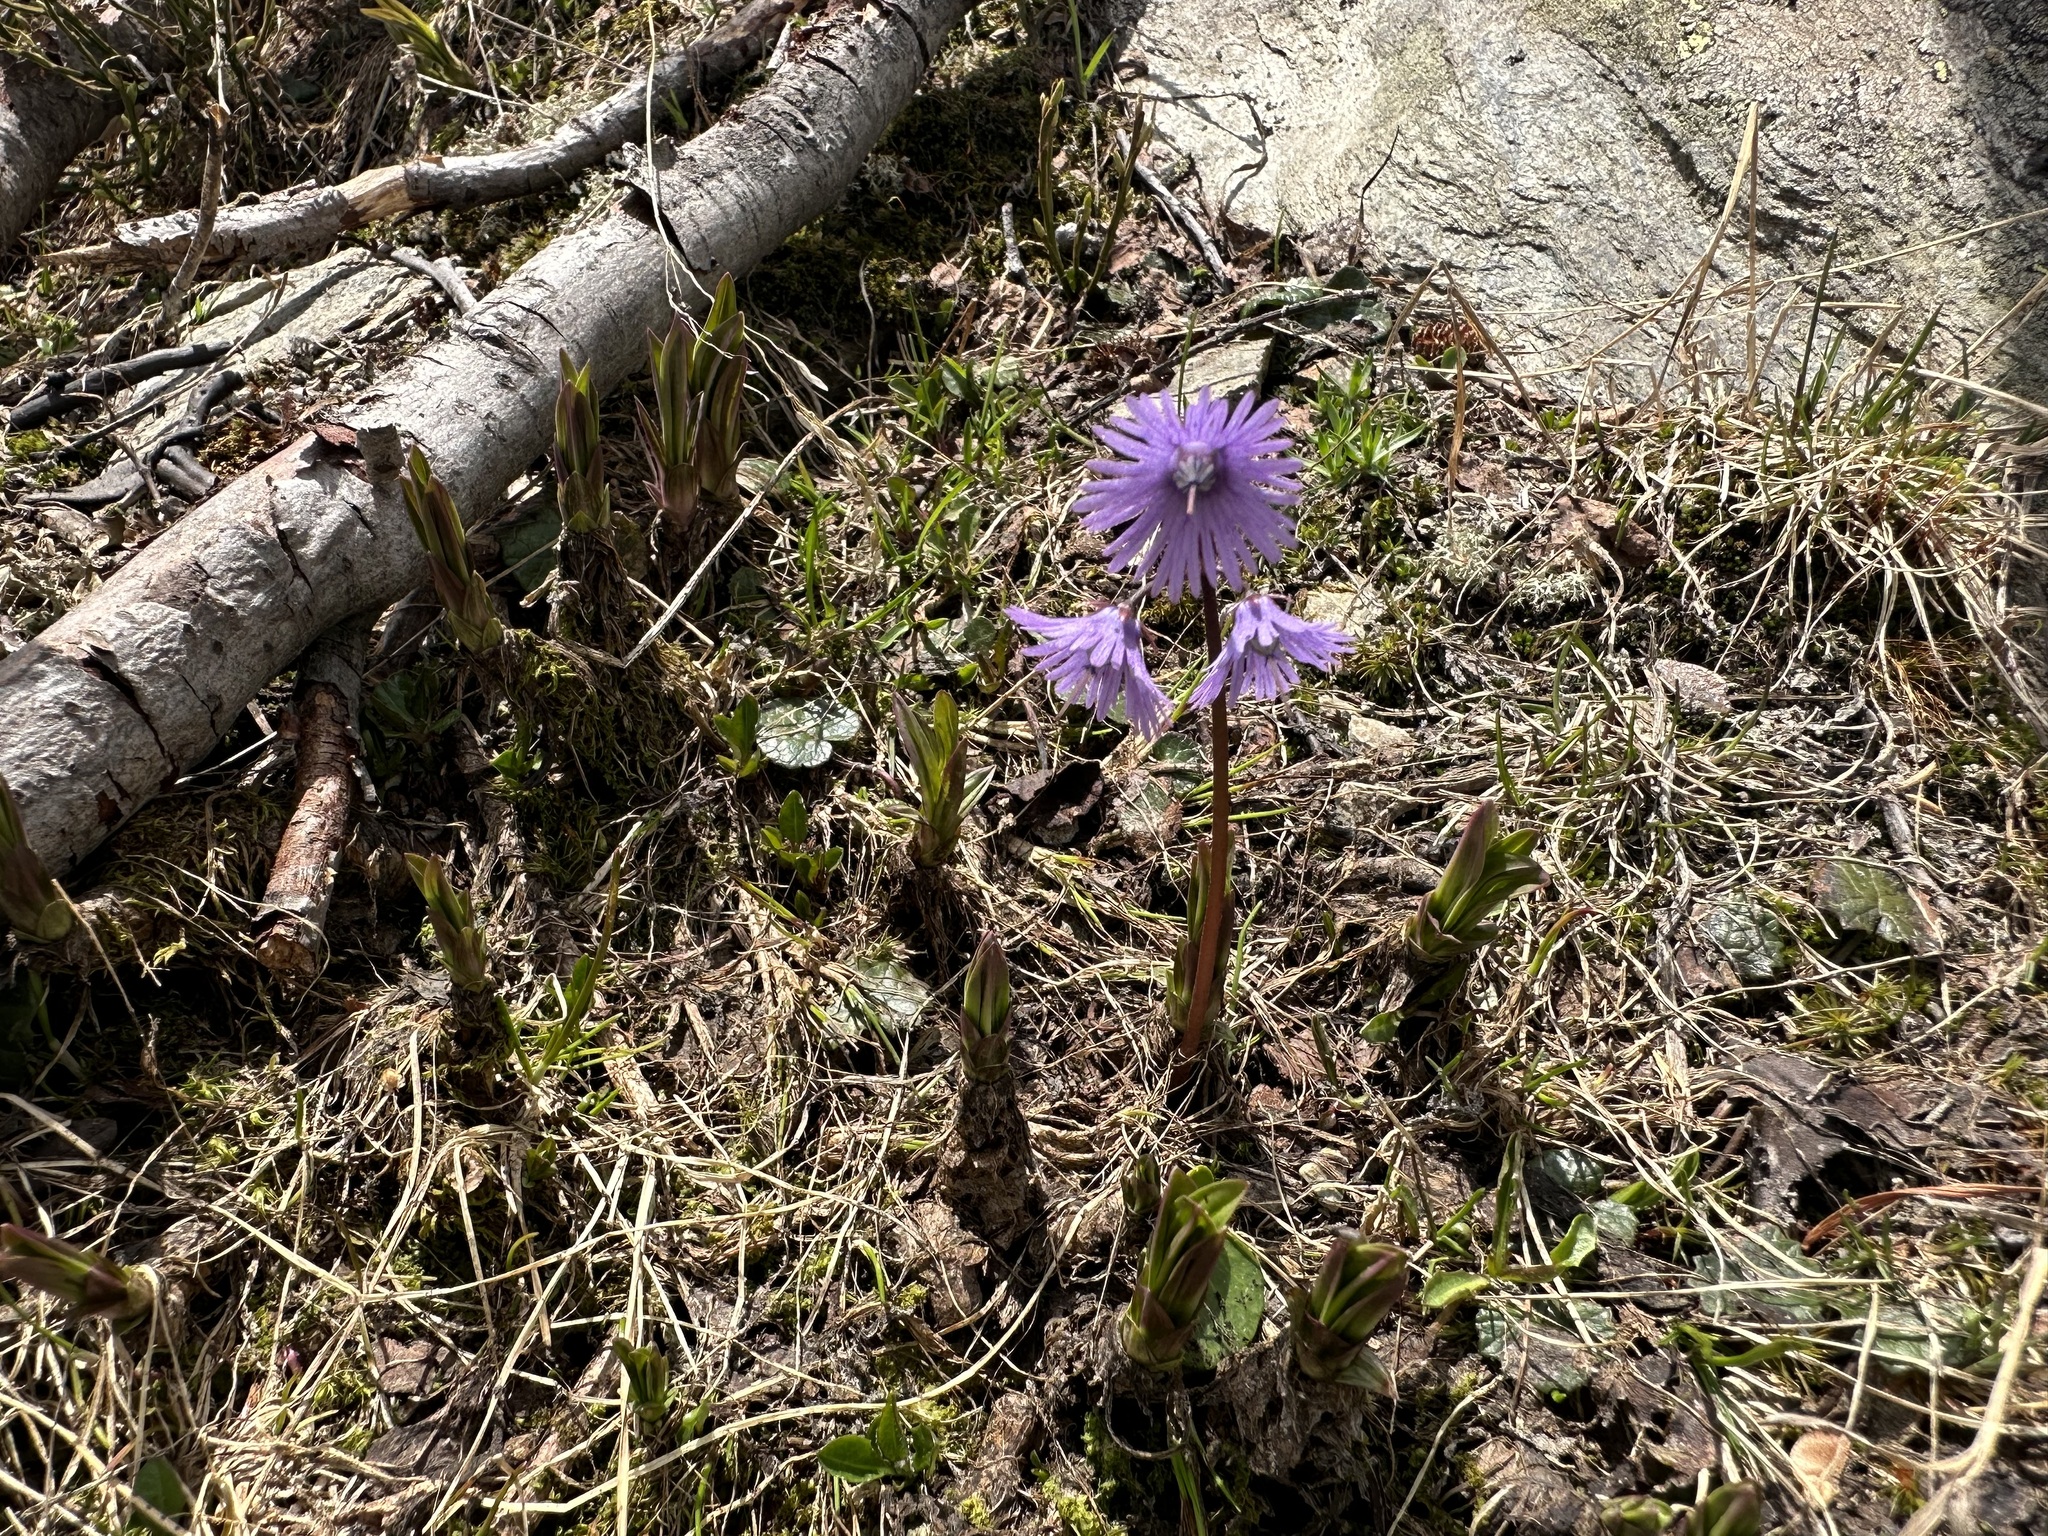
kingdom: Plantae
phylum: Tracheophyta
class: Magnoliopsida
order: Ericales
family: Primulaceae
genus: Soldanella
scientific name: Soldanella alpina
